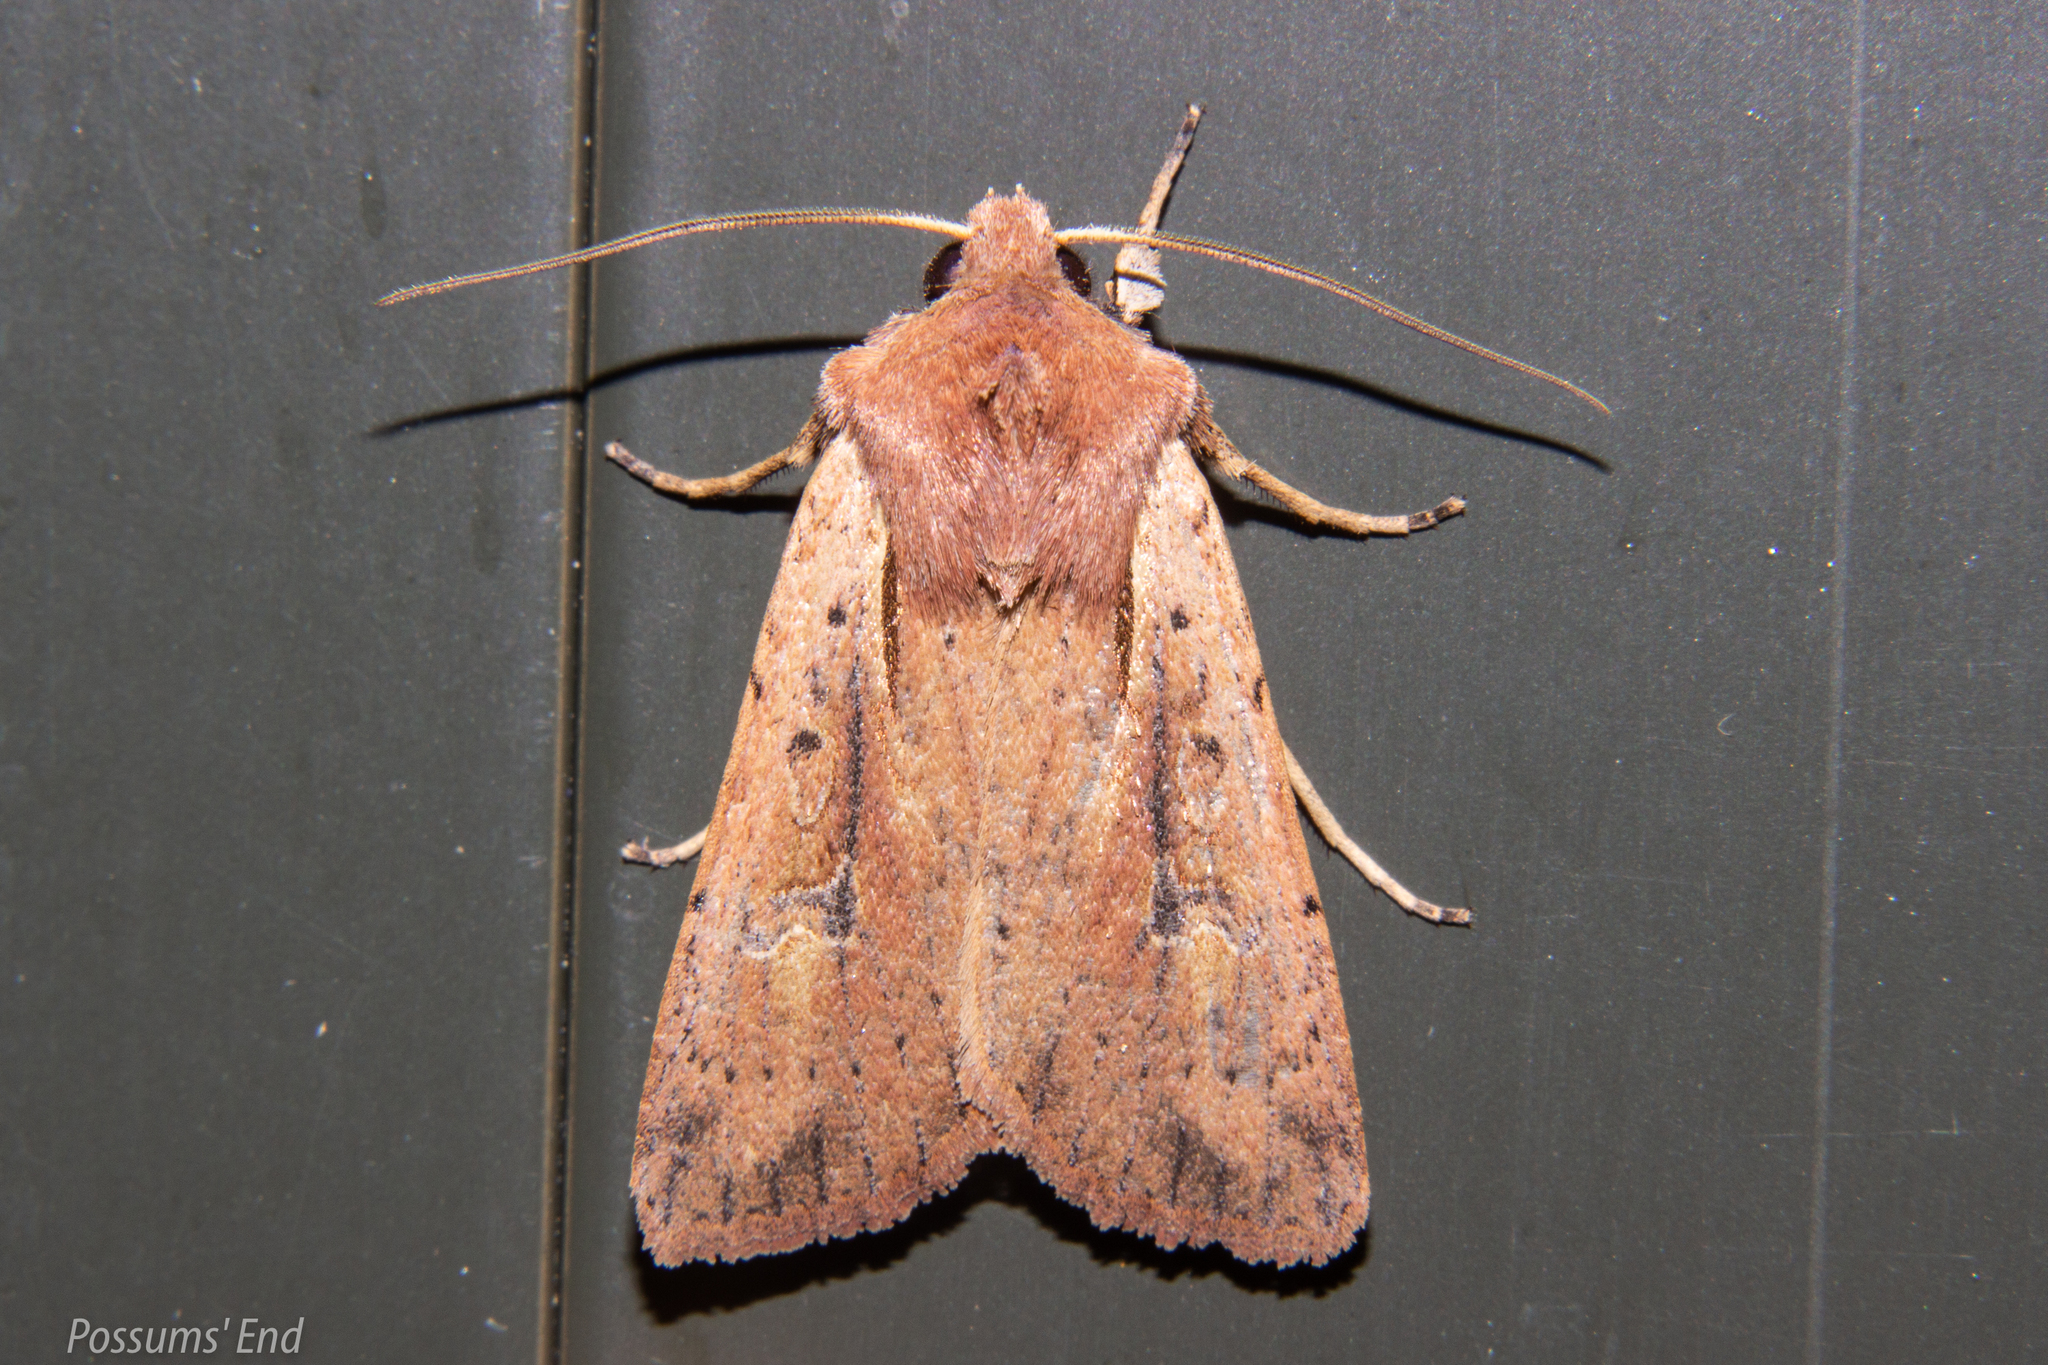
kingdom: Animalia
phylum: Arthropoda
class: Insecta
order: Lepidoptera
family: Noctuidae
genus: Ichneutica
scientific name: Ichneutica atristriga
